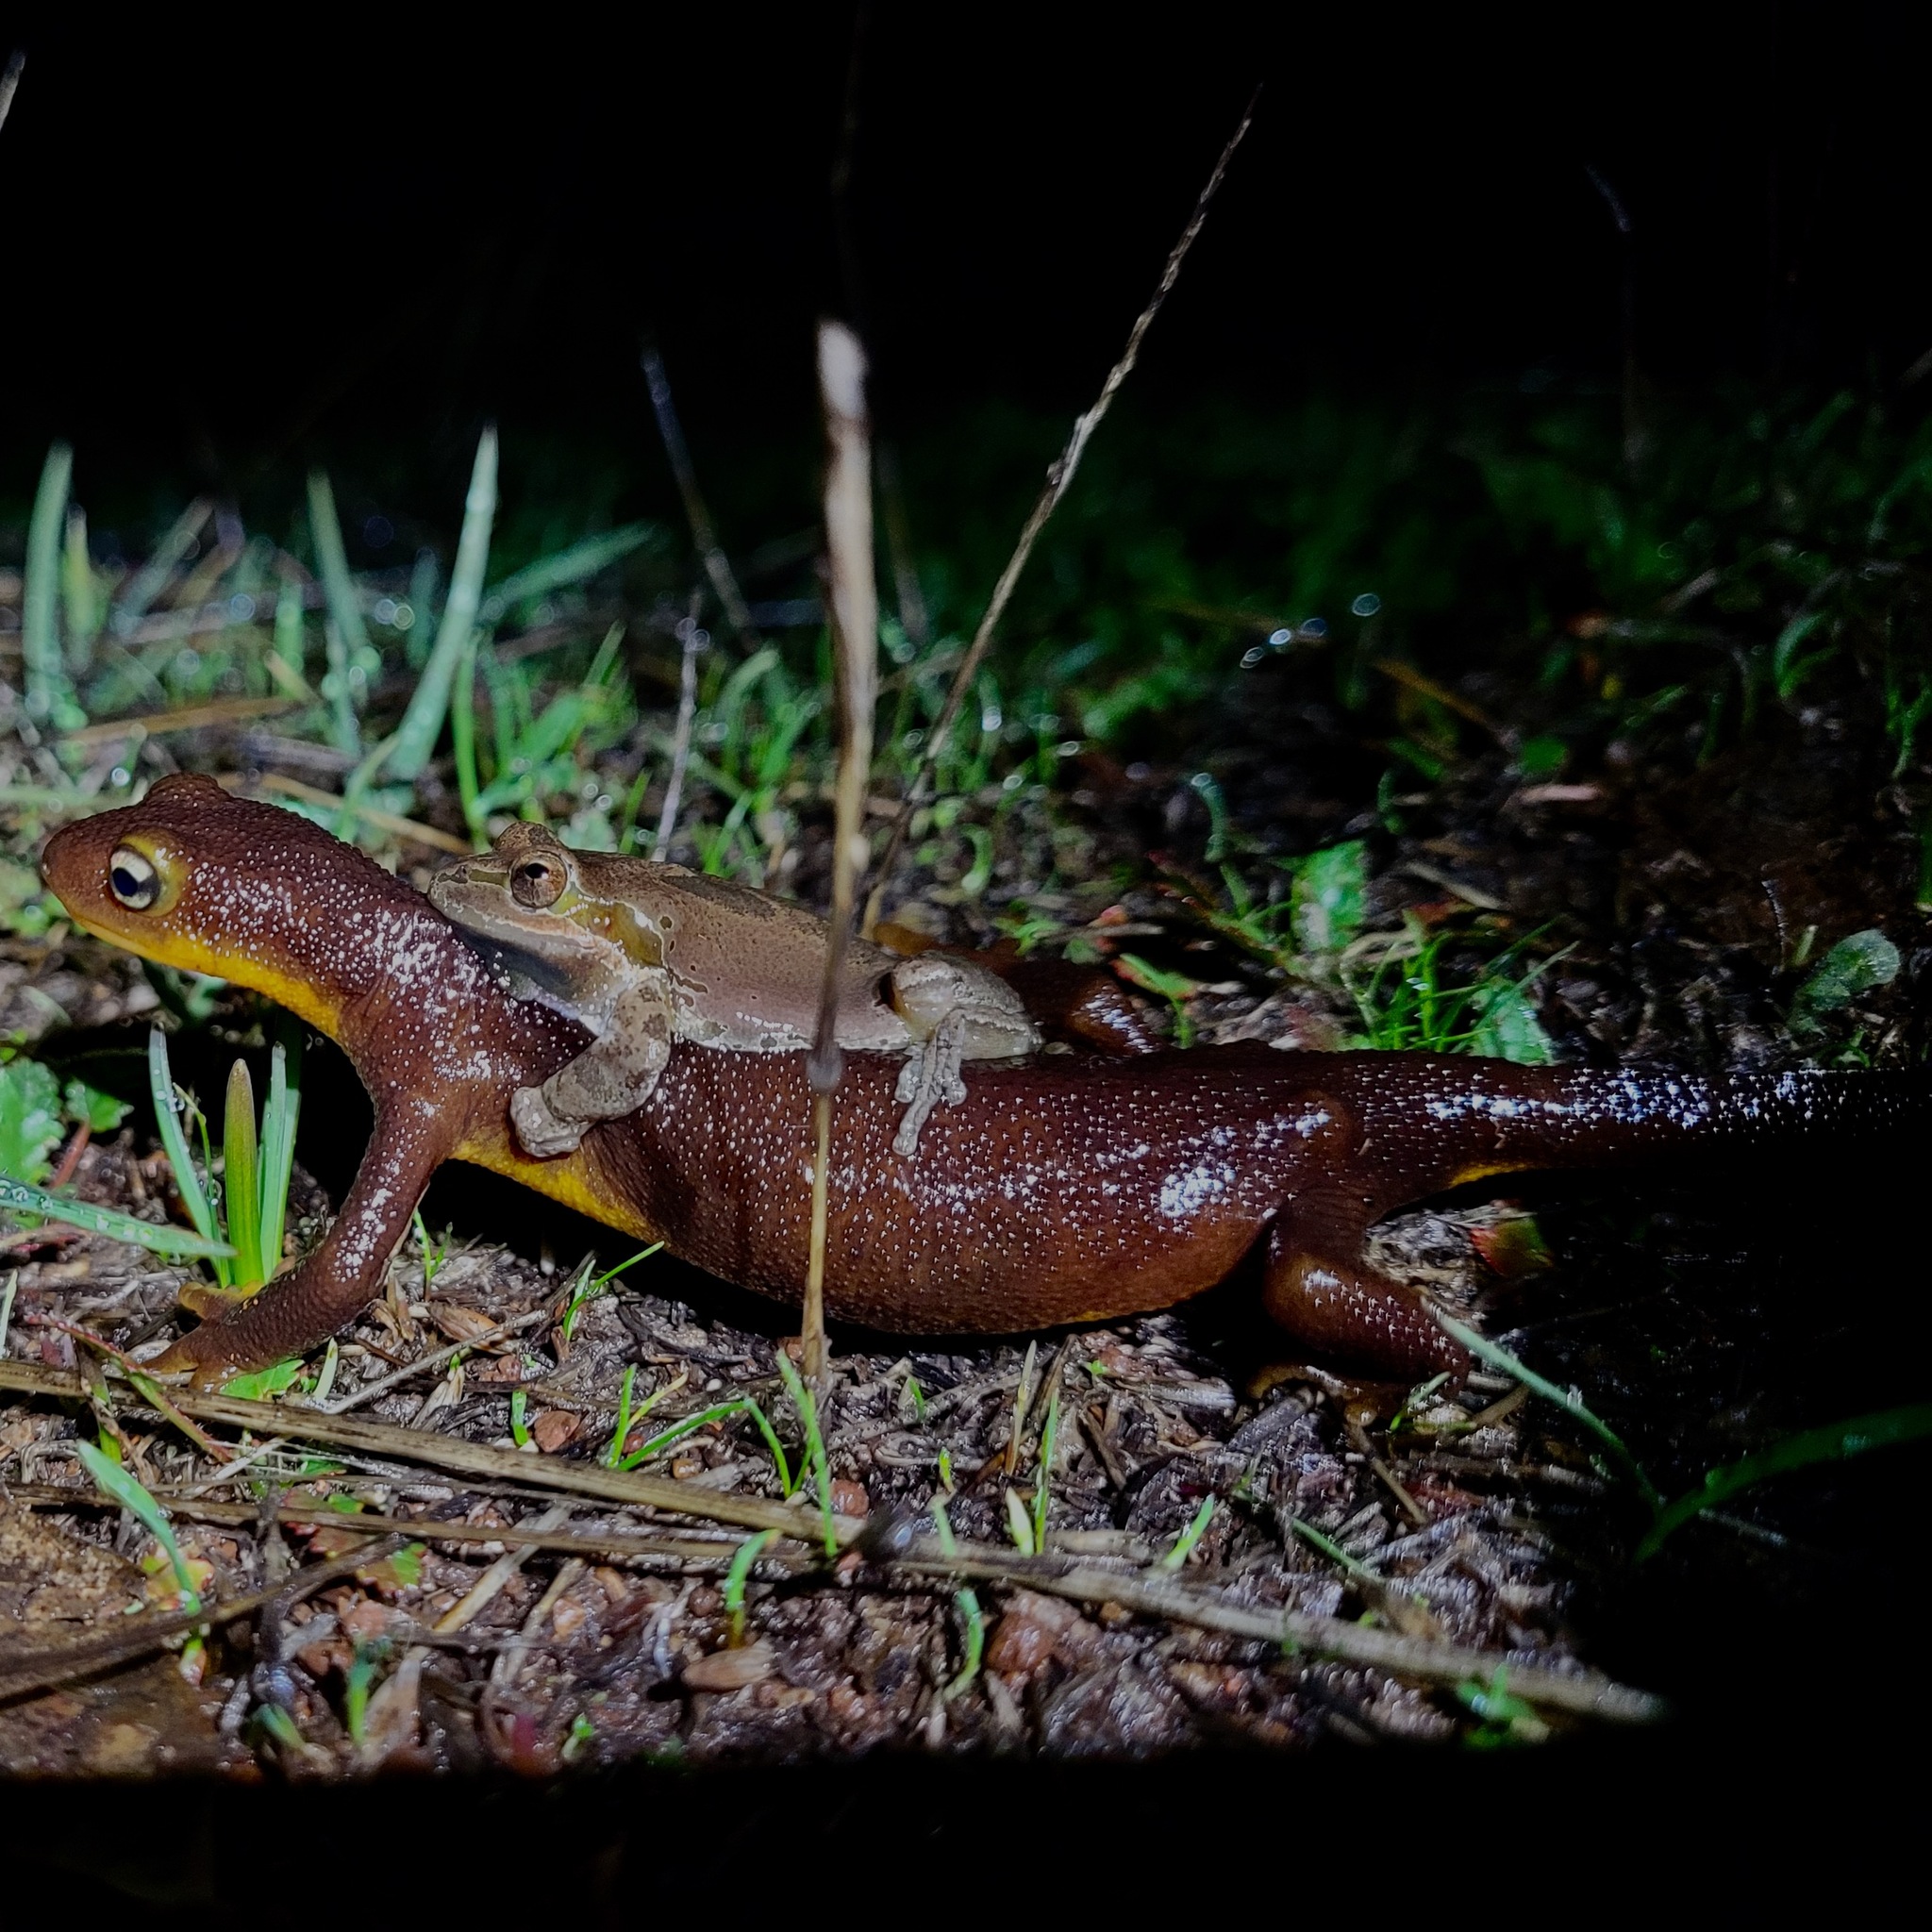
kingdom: Animalia
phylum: Chordata
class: Amphibia
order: Caudata
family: Salamandridae
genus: Taricha
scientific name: Taricha torosa
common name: California newt
